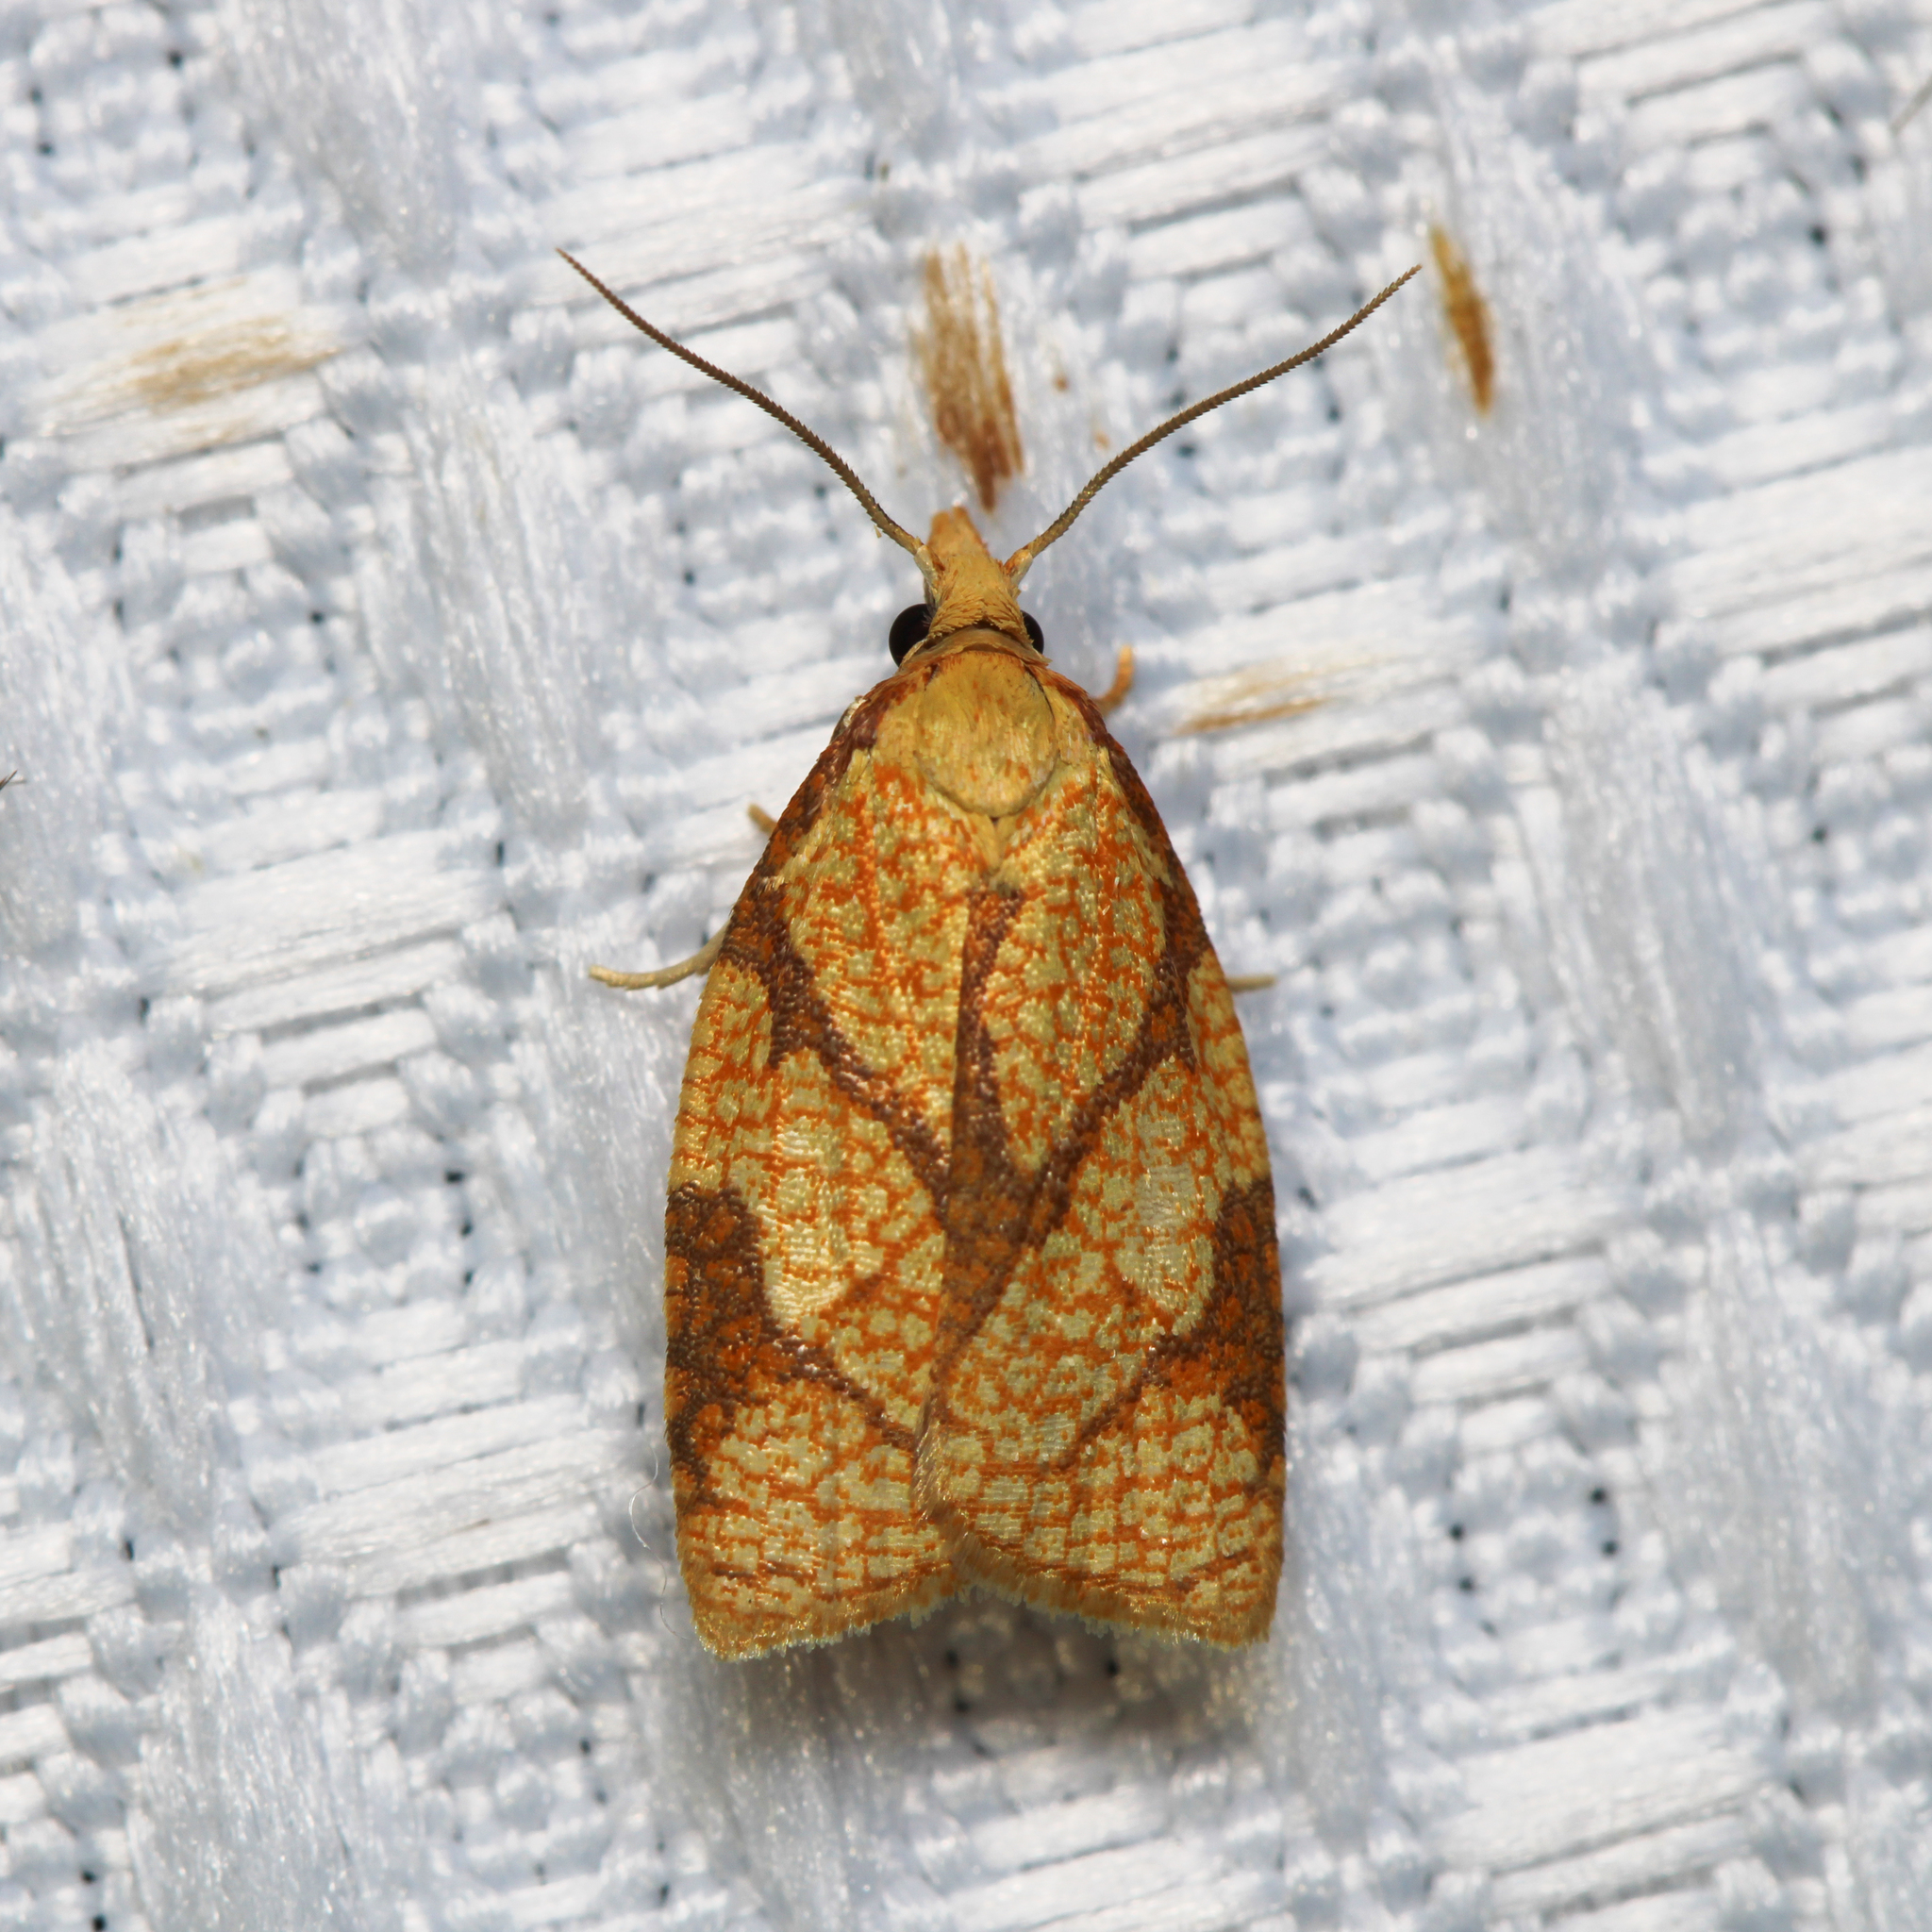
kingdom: Animalia
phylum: Arthropoda
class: Insecta
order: Lepidoptera
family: Tortricidae
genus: Cenopis
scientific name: Cenopis reticulatana
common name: Reticulated fruitworm moth
